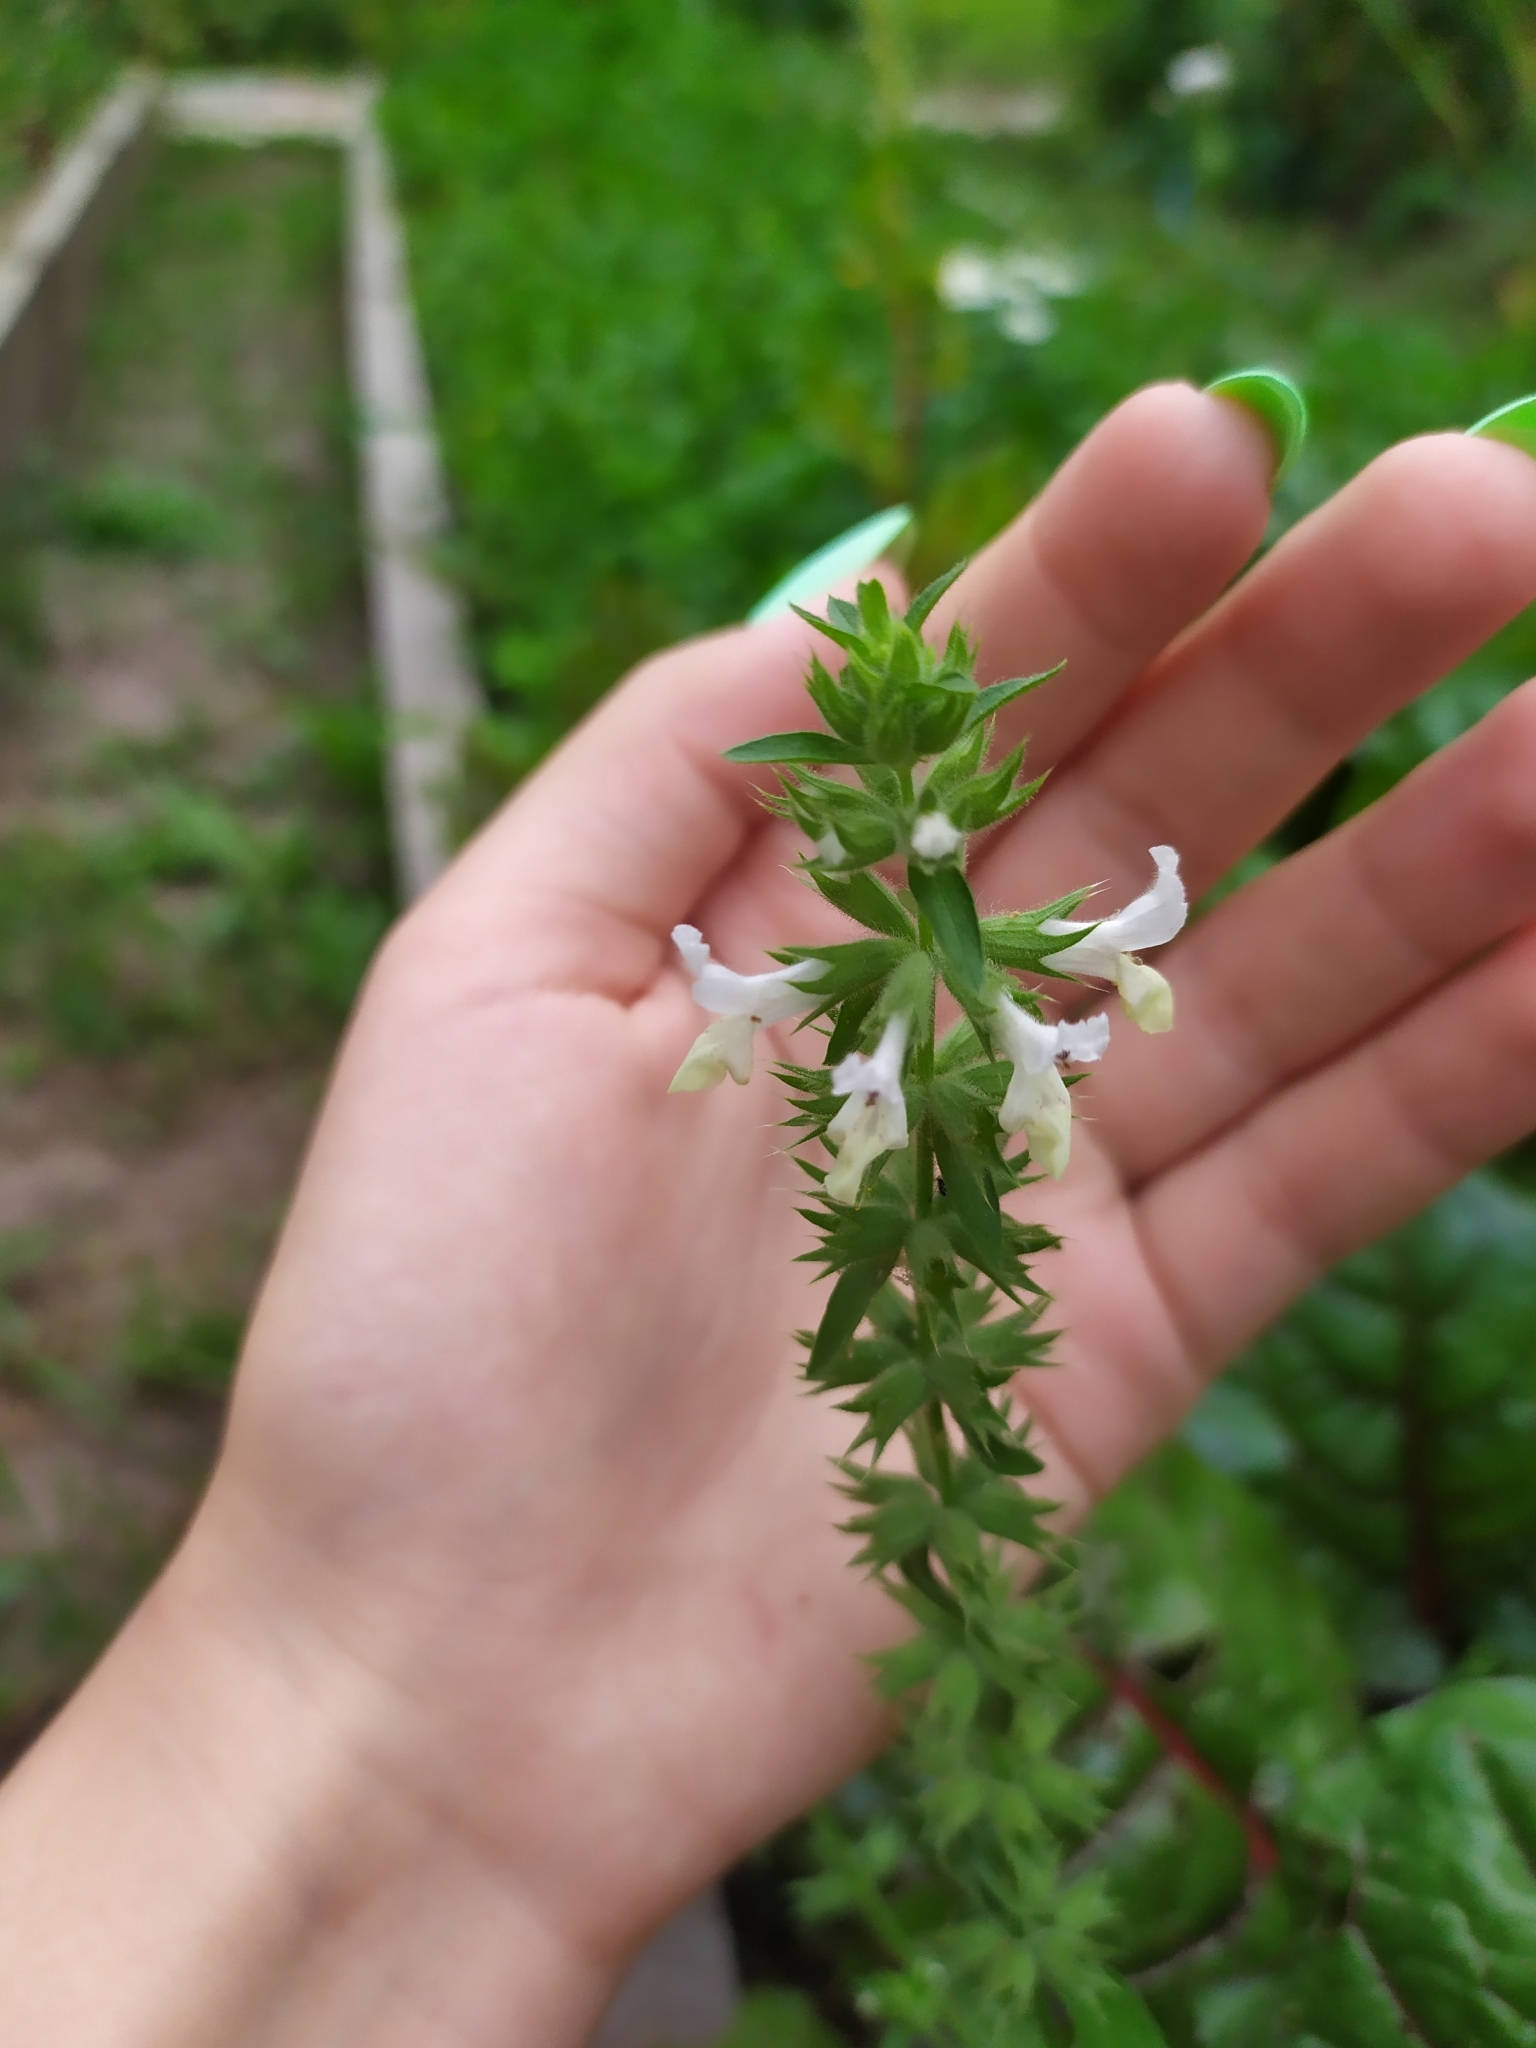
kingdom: Plantae
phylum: Tracheophyta
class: Magnoliopsida
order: Lamiales
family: Lamiaceae
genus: Stachys
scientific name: Stachys annua
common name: Annual yellow-woundwort
